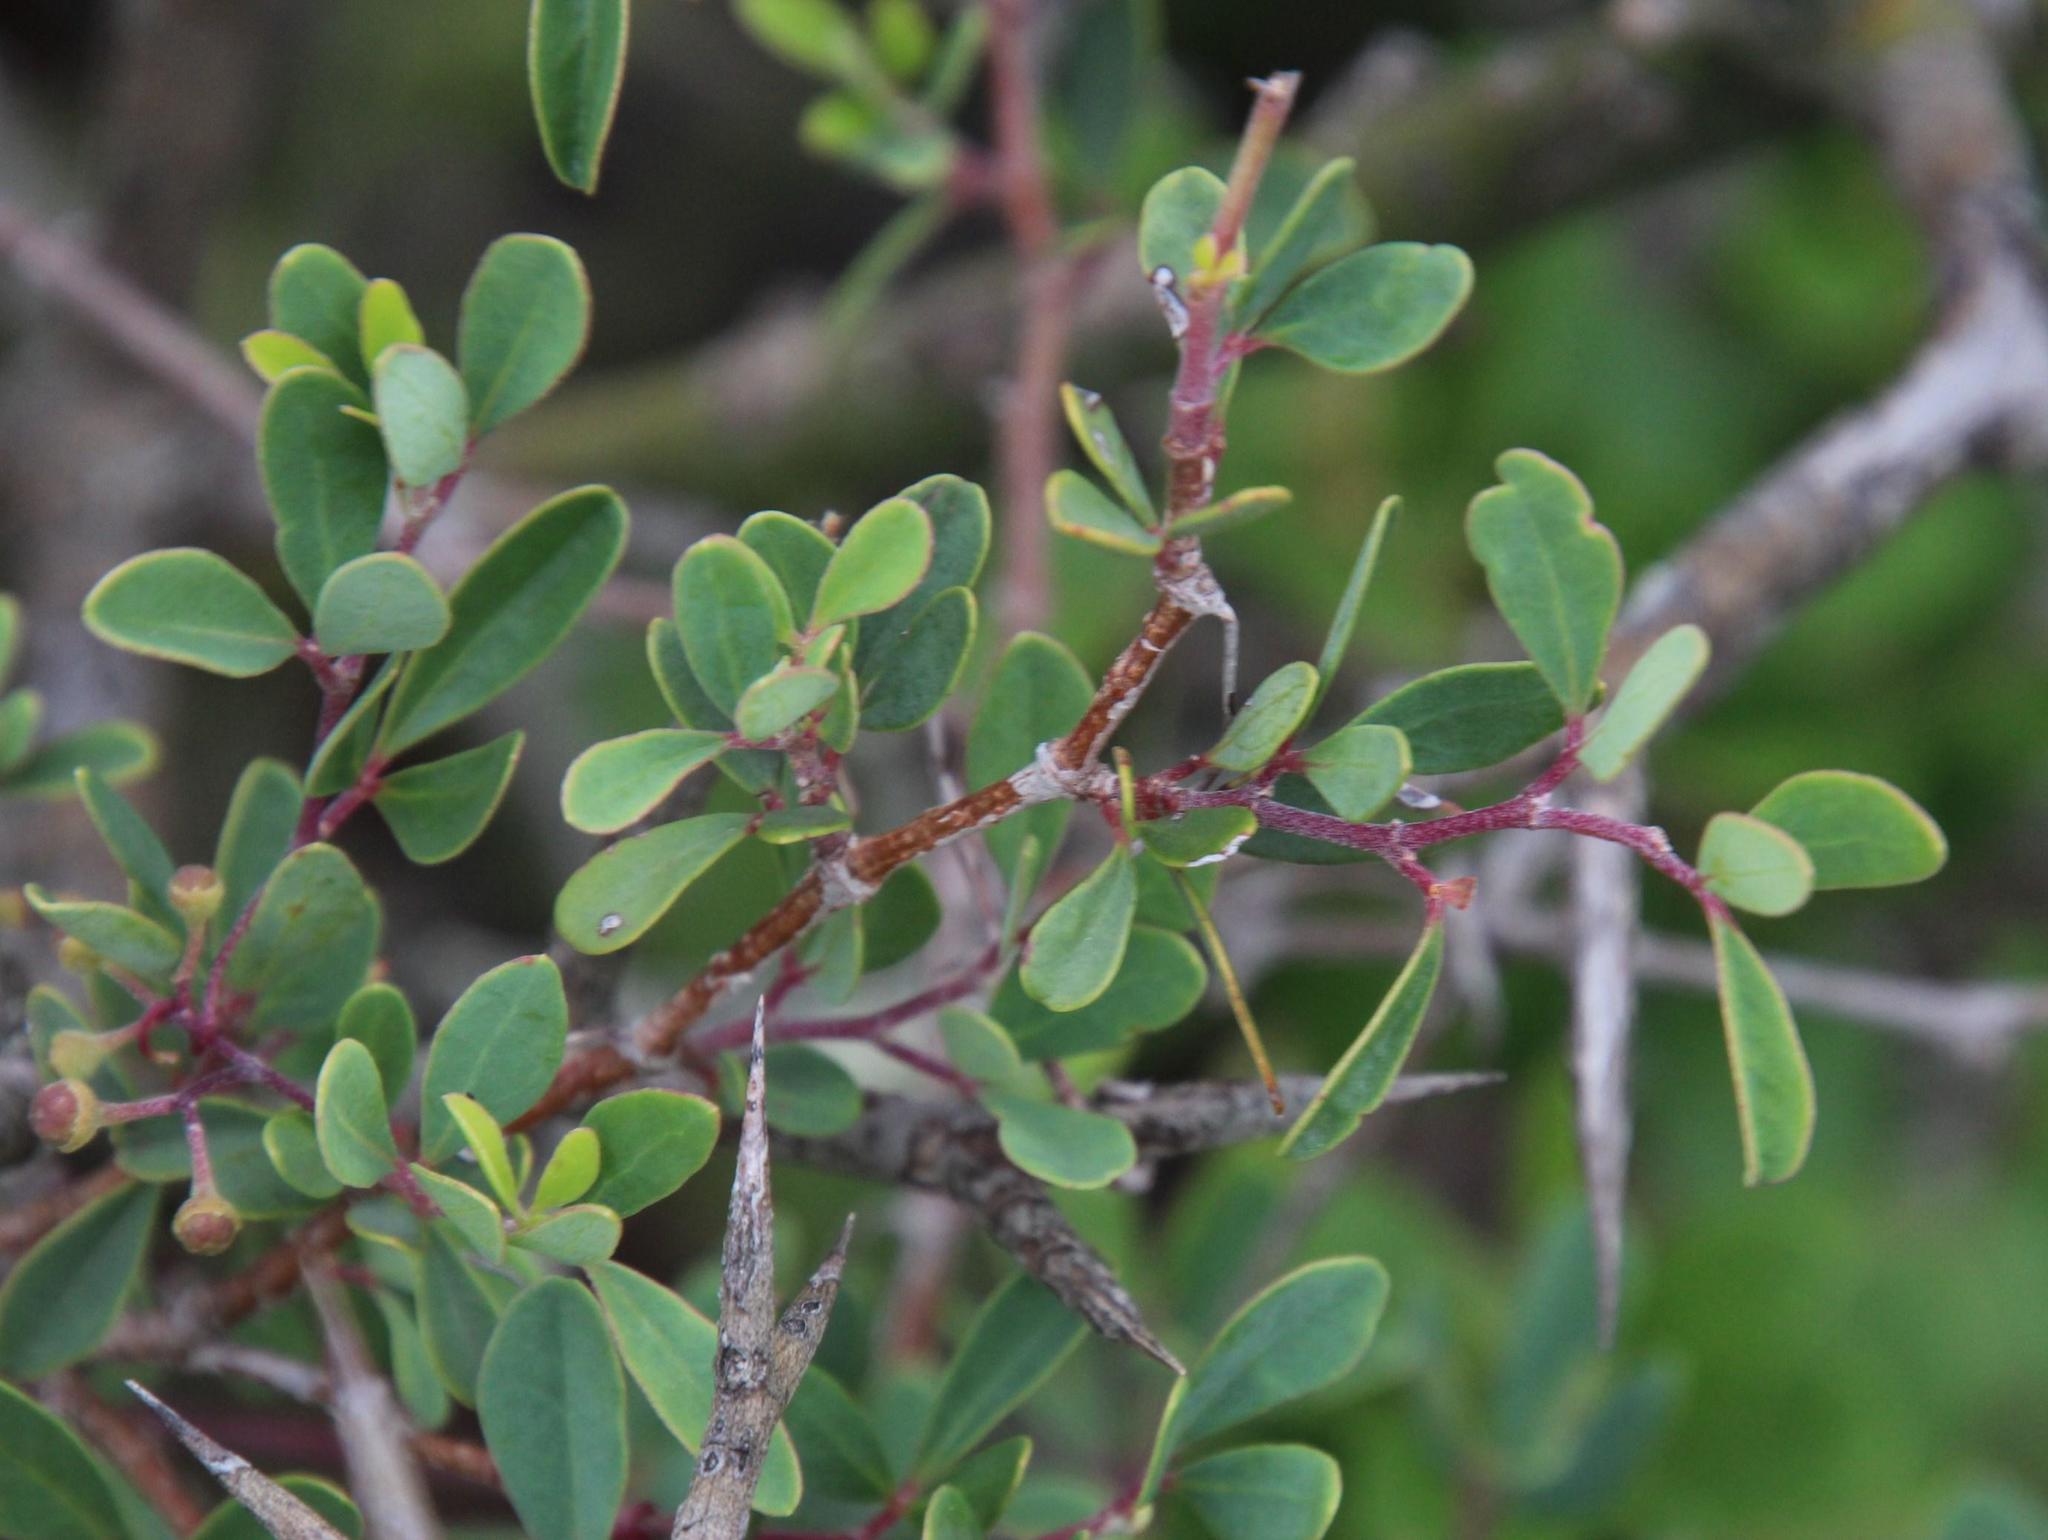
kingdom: Plantae
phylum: Tracheophyta
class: Magnoliopsida
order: Vitales
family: Vitaceae
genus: Rhoicissus
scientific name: Rhoicissus tridentata
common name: Common forest grape
